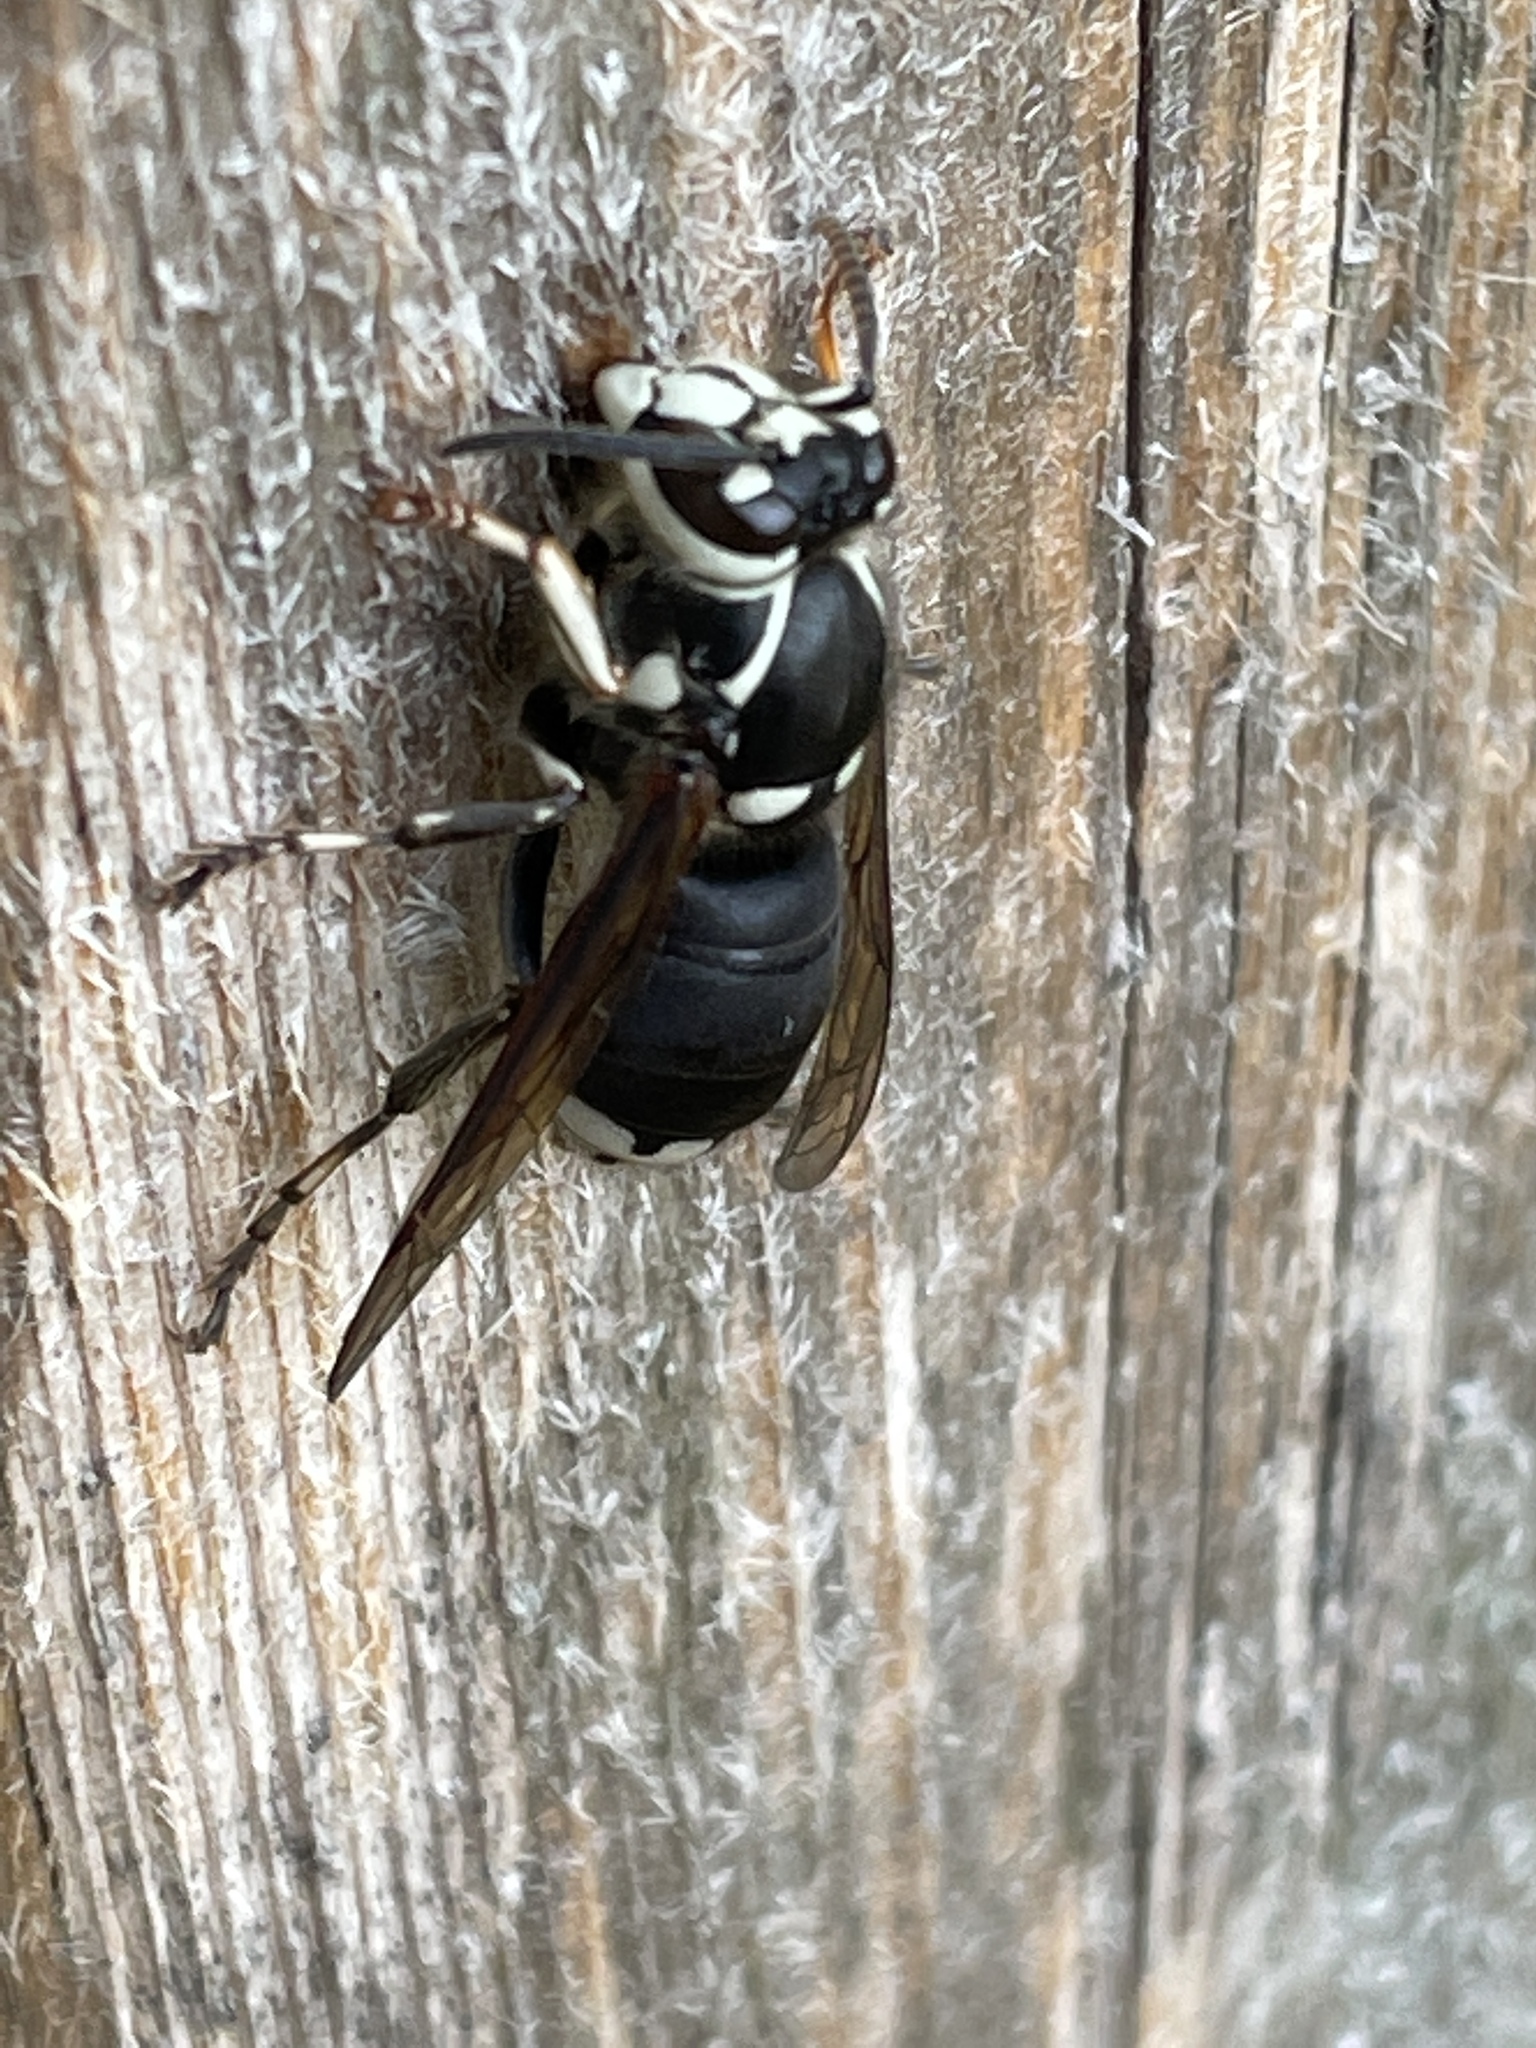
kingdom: Animalia
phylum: Arthropoda
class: Insecta
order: Hymenoptera
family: Vespidae
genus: Dolichovespula
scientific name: Dolichovespula maculata
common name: Bald-faced hornet
